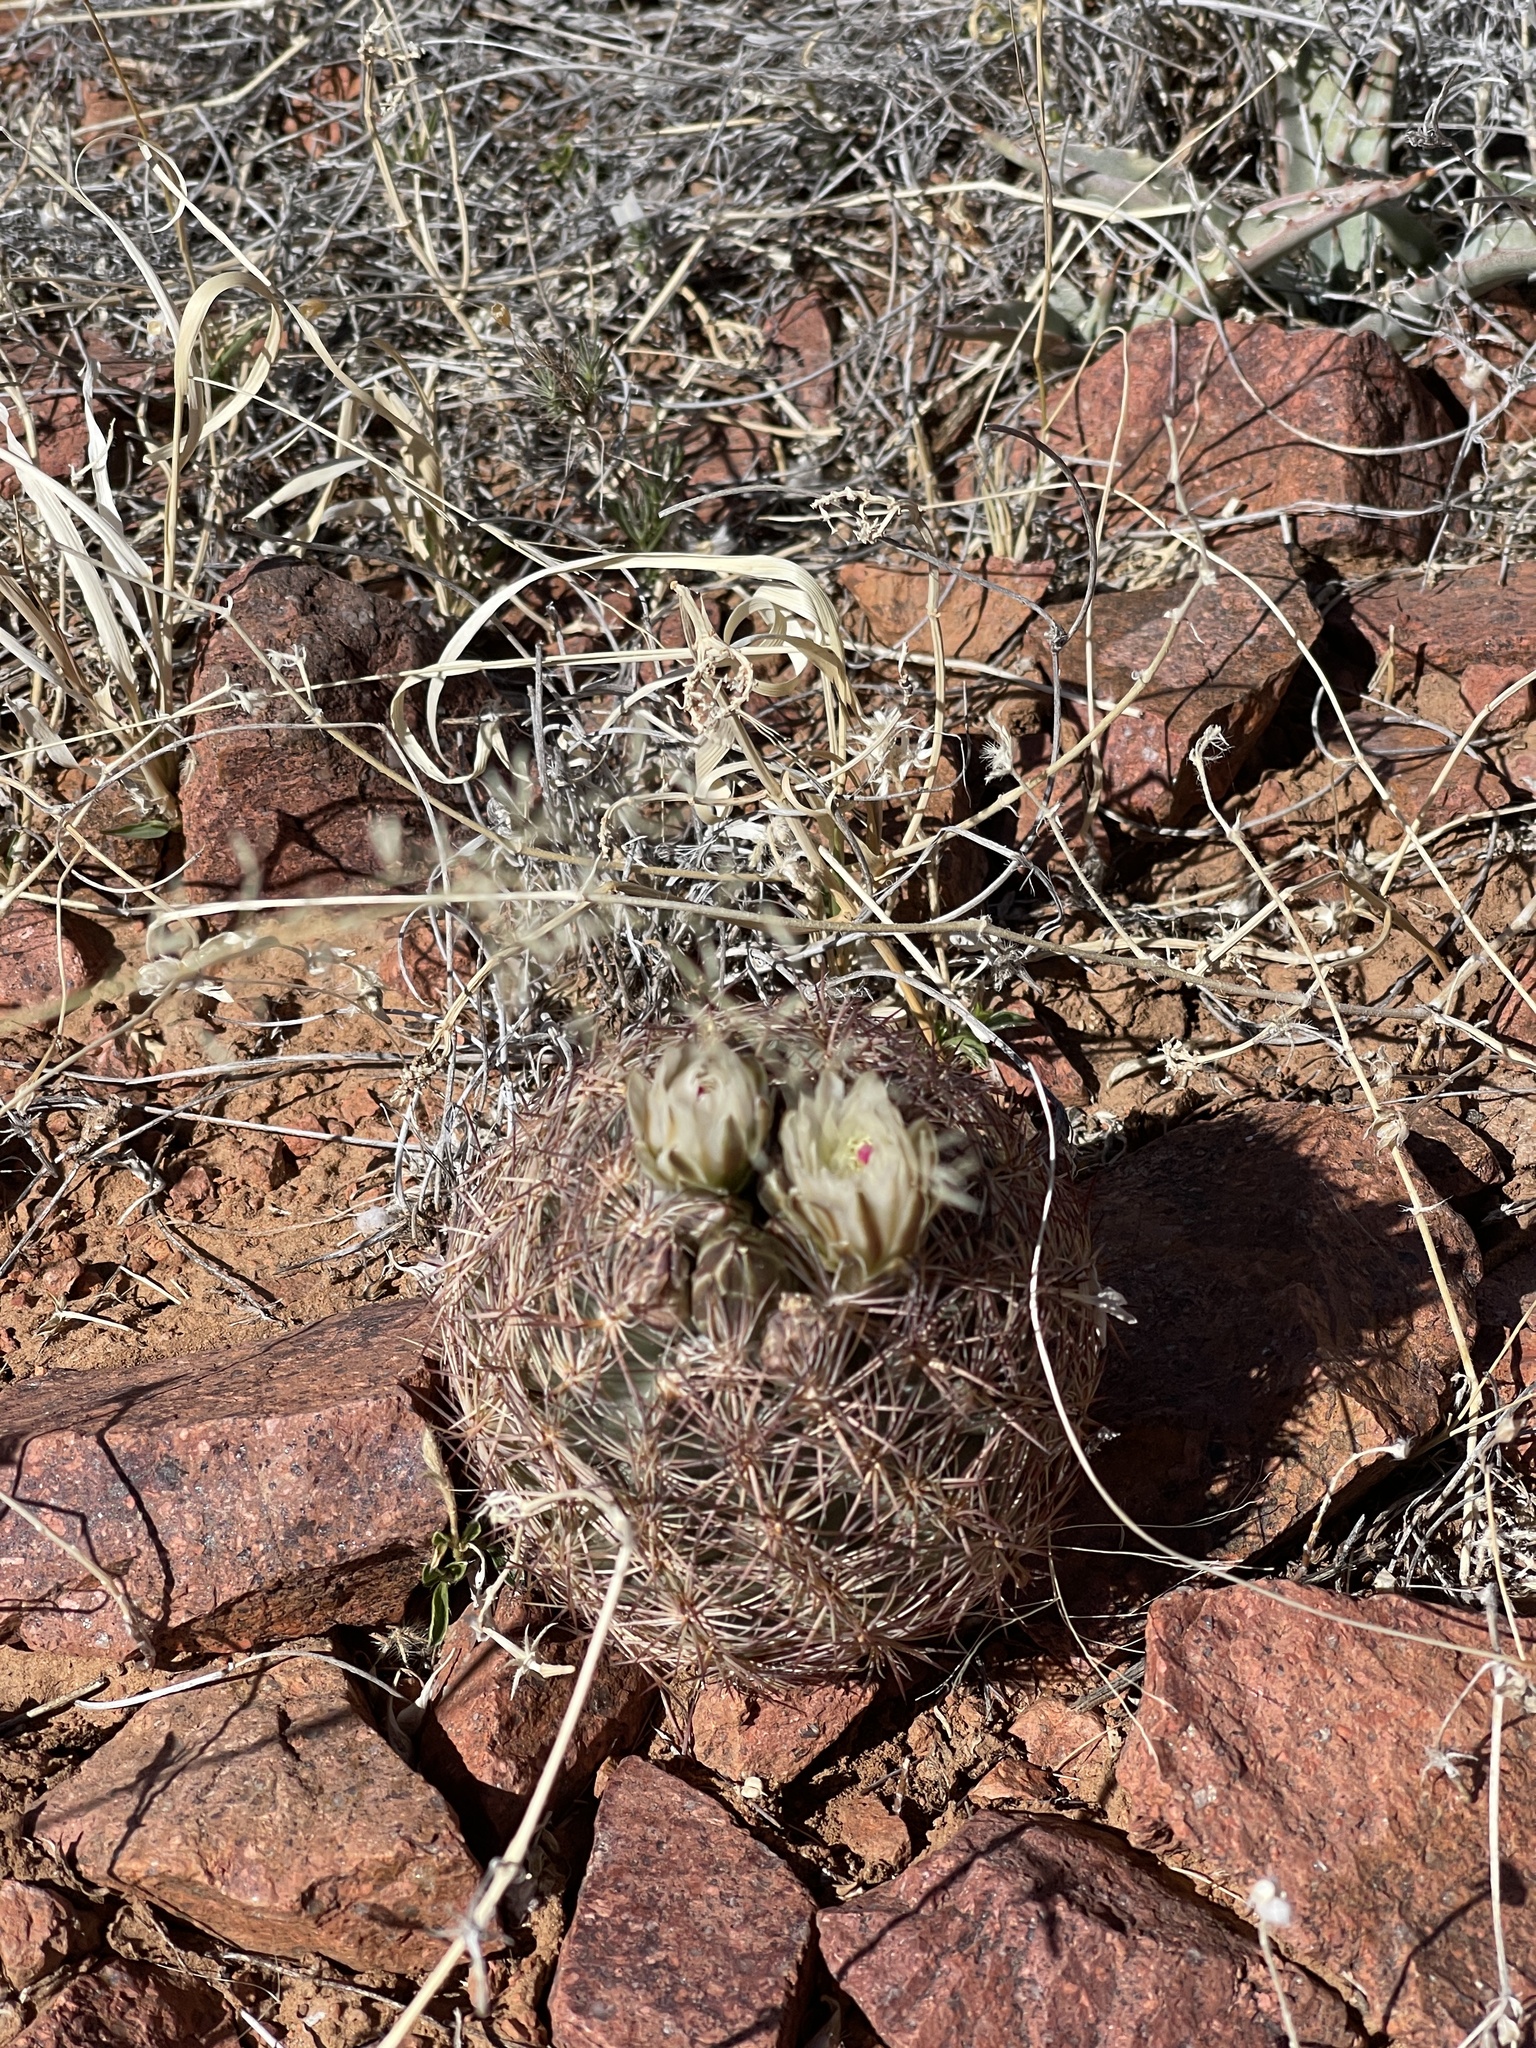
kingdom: Plantae
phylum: Tracheophyta
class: Magnoliopsida
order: Caryophyllales
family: Cactaceae
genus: Sclerocactus
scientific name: Sclerocactus intertextus
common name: White fish-hook cactus
